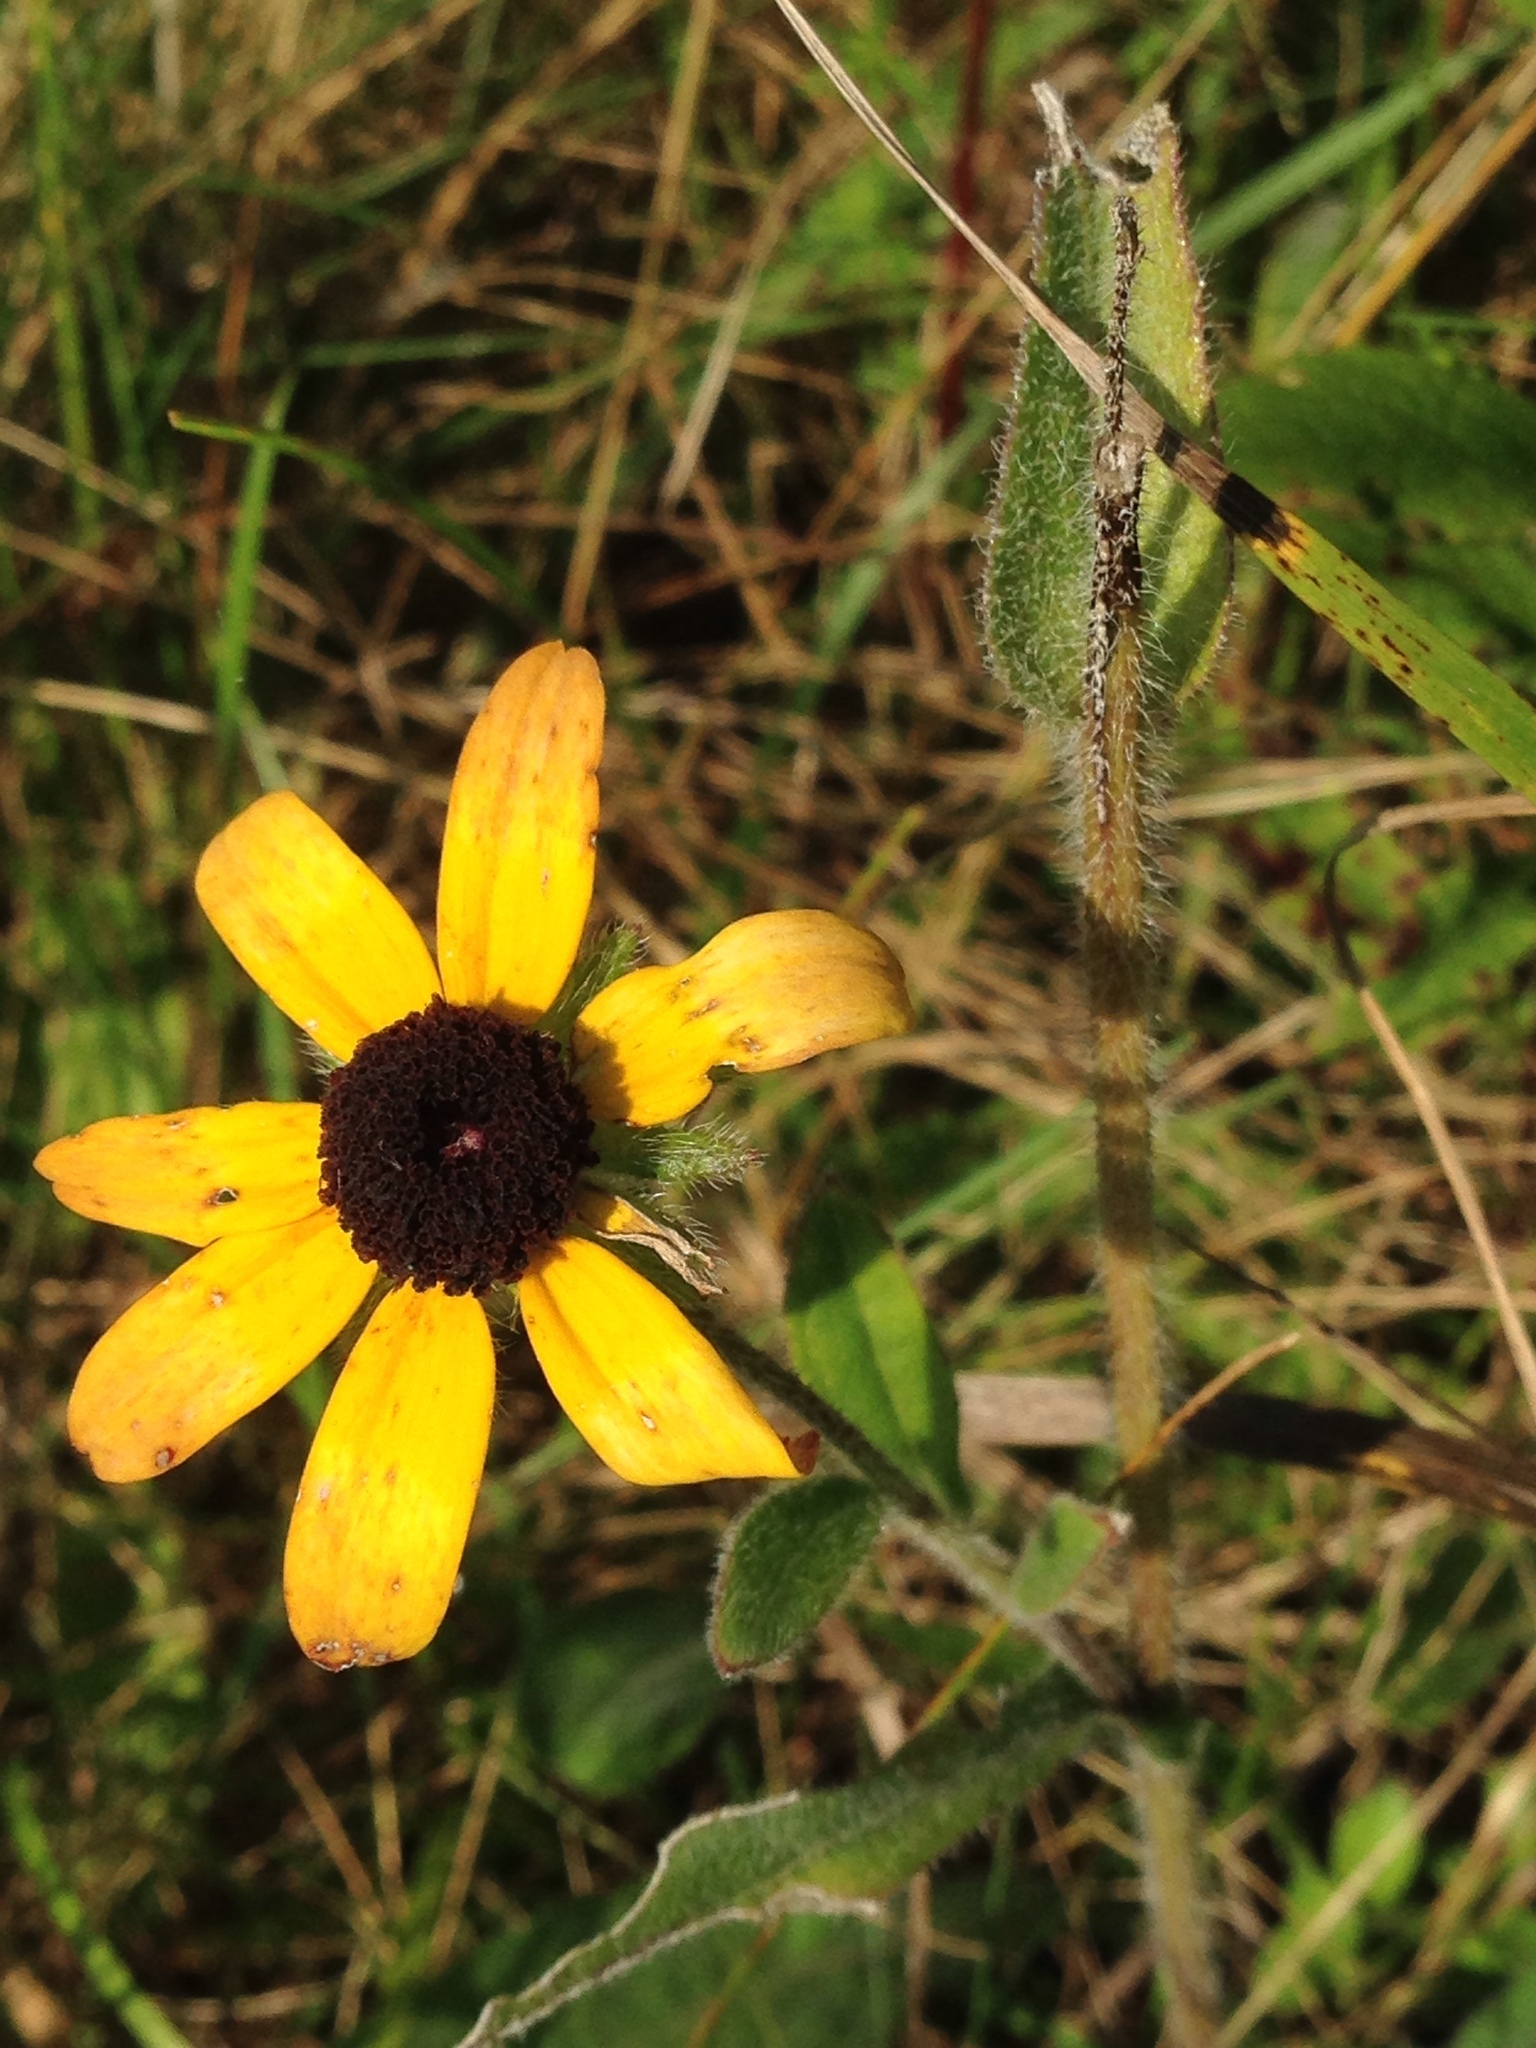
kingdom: Plantae
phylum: Tracheophyta
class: Magnoliopsida
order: Asterales
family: Asteraceae
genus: Rudbeckia
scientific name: Rudbeckia hirta
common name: Black-eyed-susan
